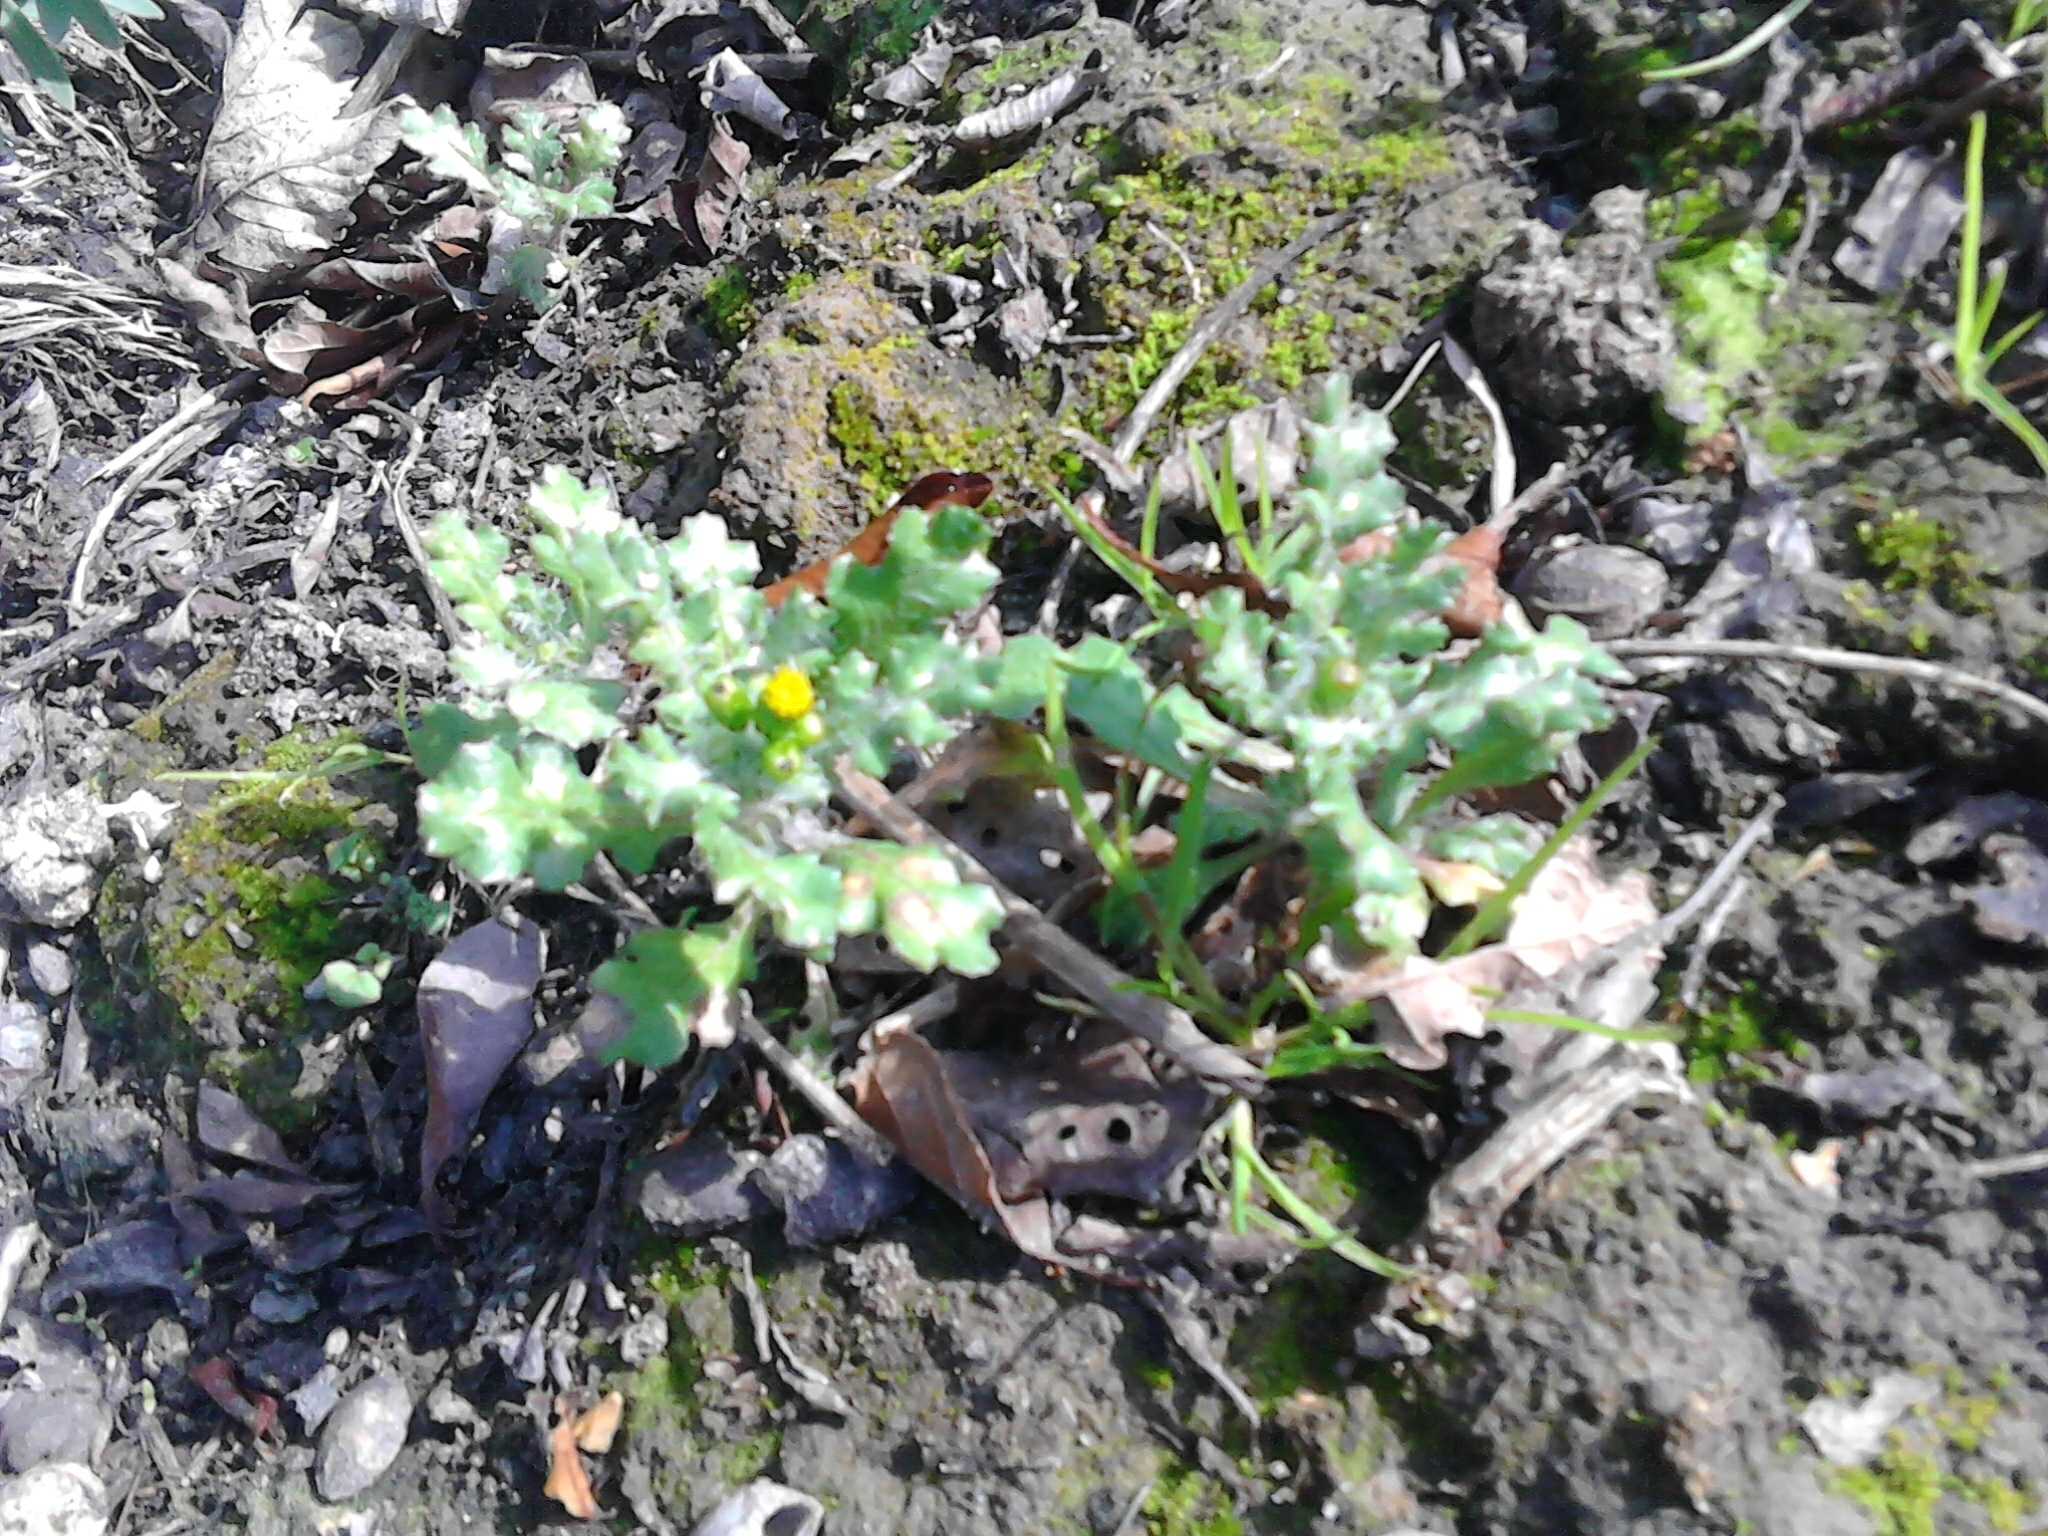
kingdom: Plantae
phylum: Tracheophyta
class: Magnoliopsida
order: Asterales
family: Asteraceae
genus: Senecio
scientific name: Senecio vulgaris
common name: Old-man-in-the-spring
